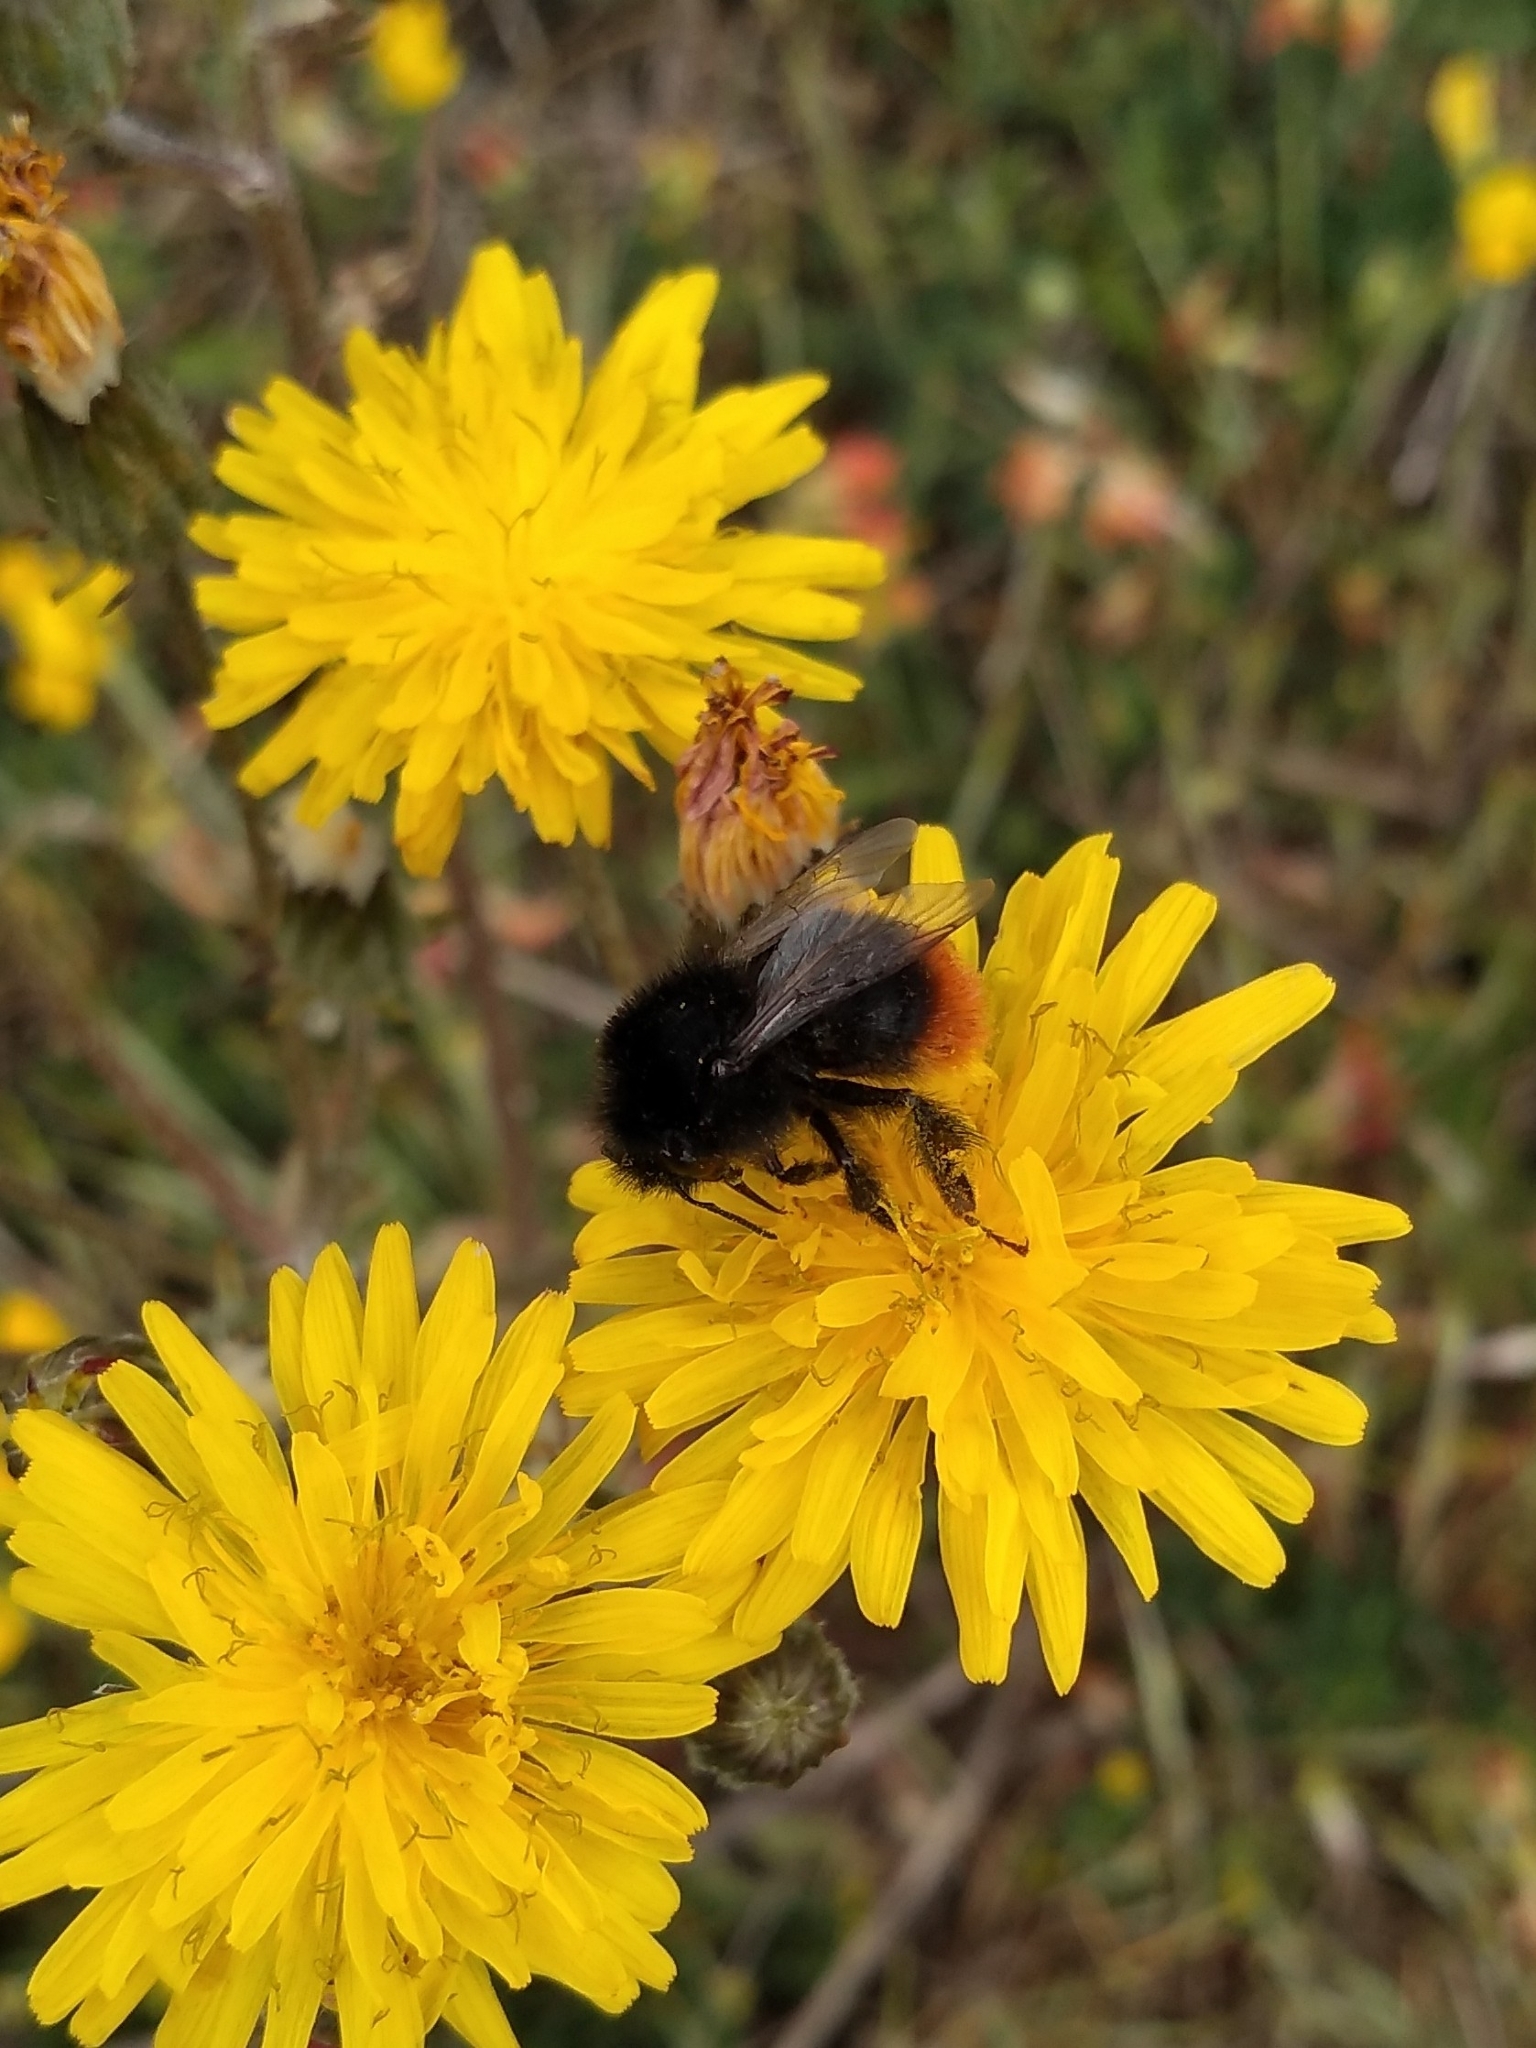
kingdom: Animalia
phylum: Arthropoda
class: Insecta
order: Hymenoptera
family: Apidae
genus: Bombus
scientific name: Bombus lapidarius
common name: Large red-tailed humble-bee
